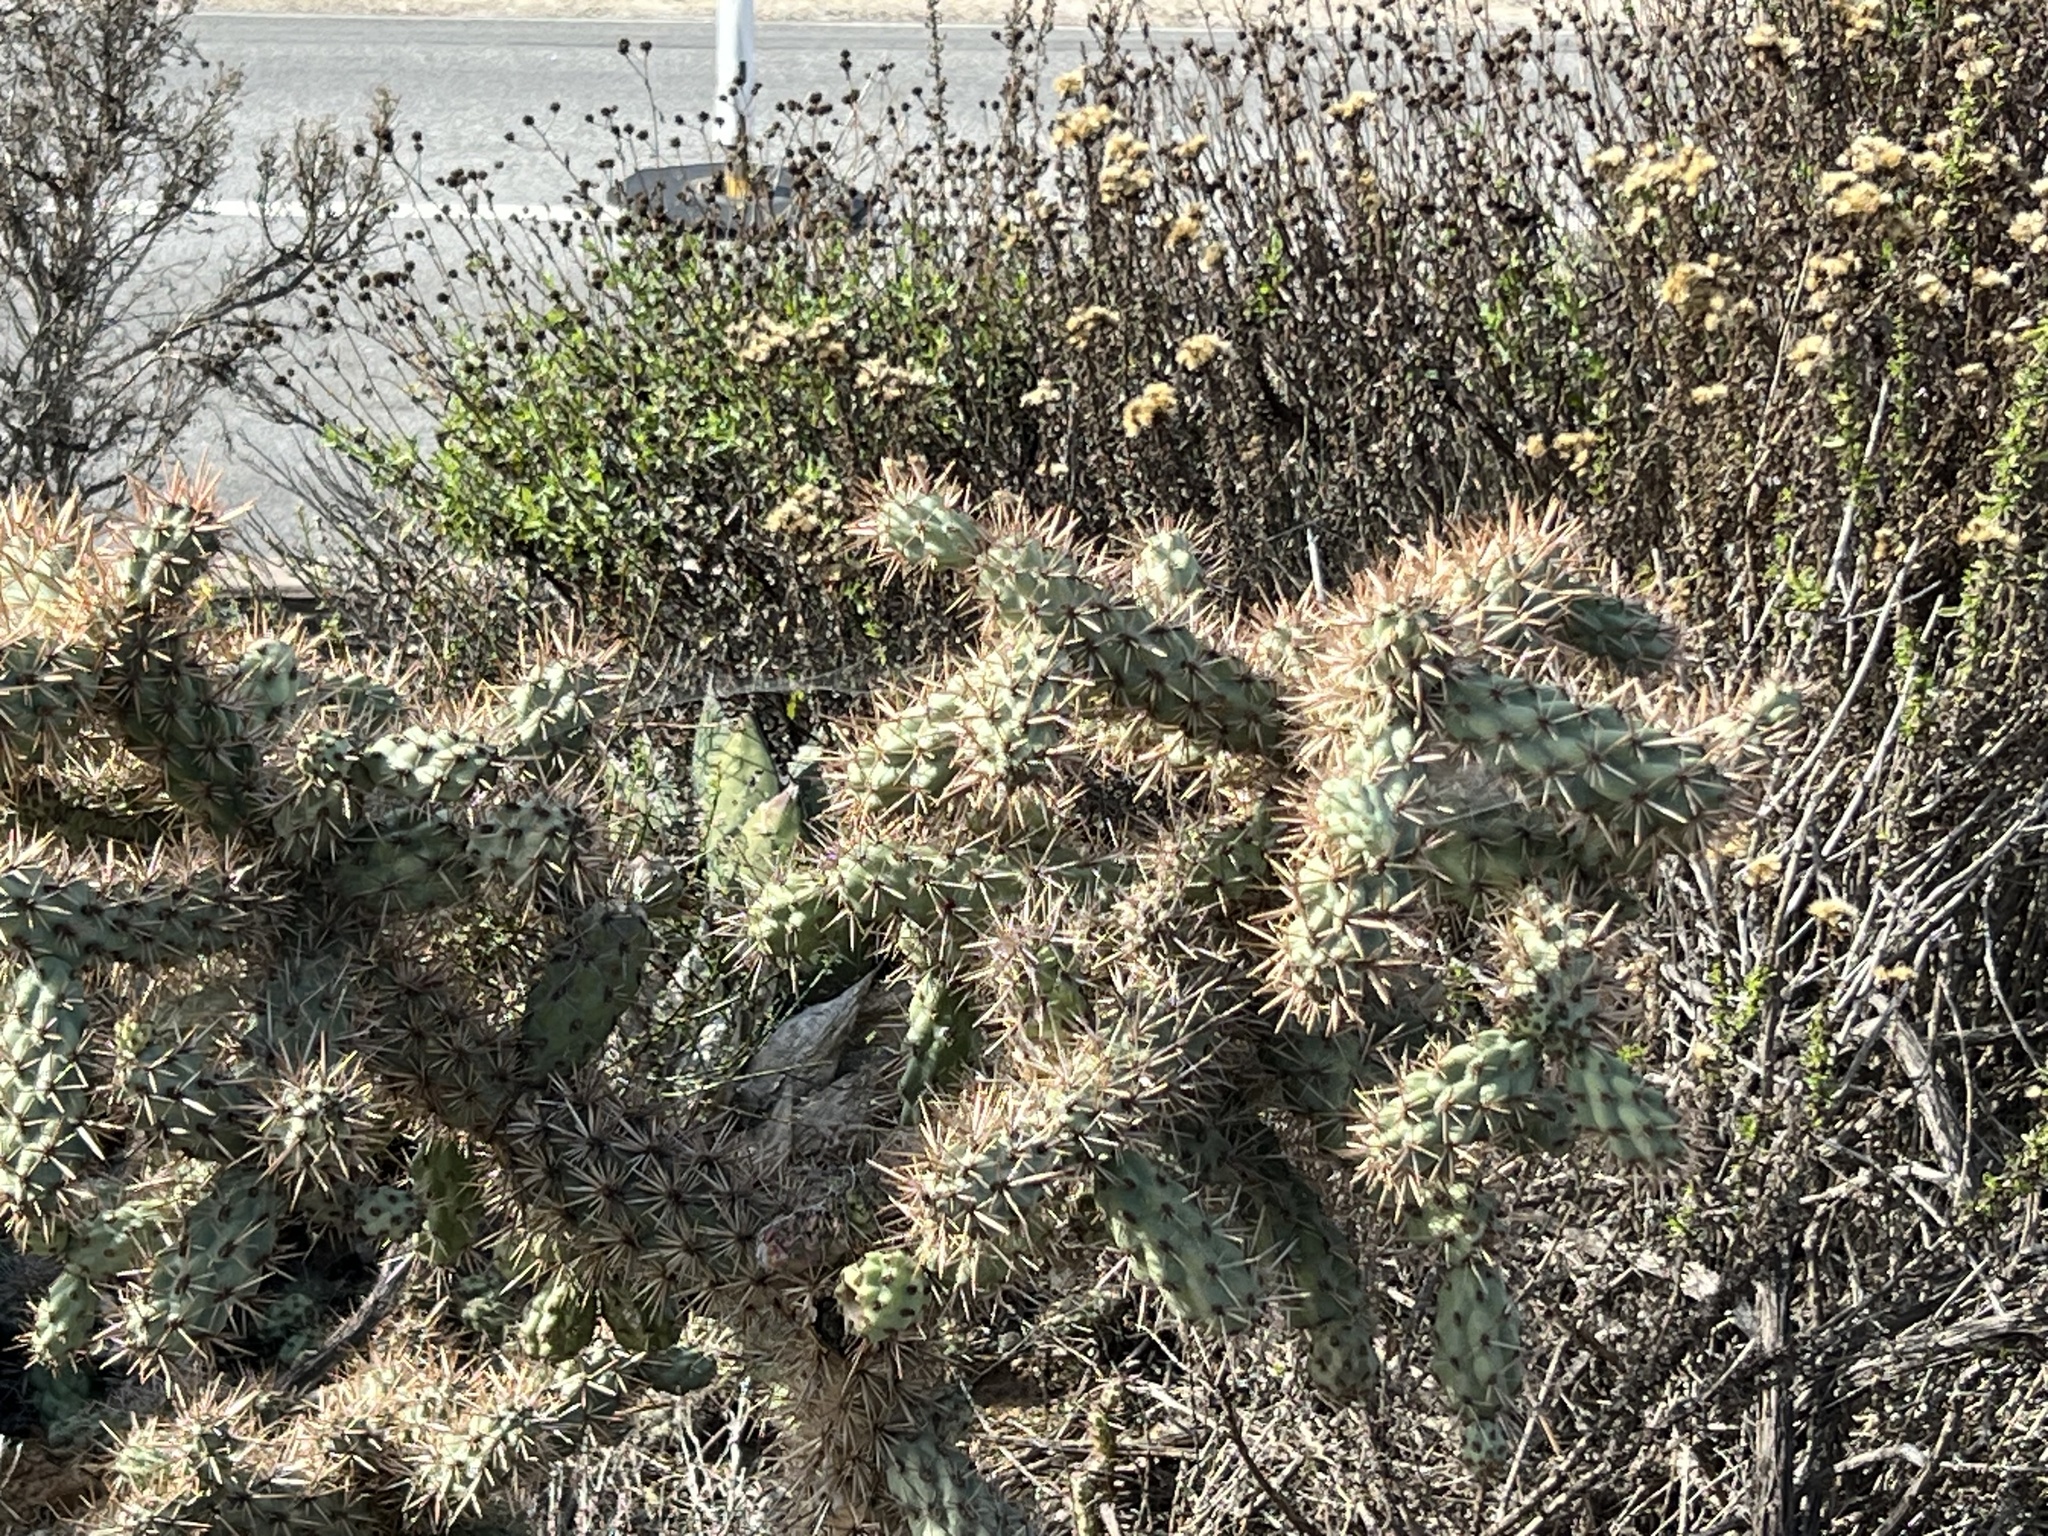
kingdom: Plantae
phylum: Tracheophyta
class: Magnoliopsida
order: Caryophyllales
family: Cactaceae
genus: Cylindropuntia
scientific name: Cylindropuntia prolifera
